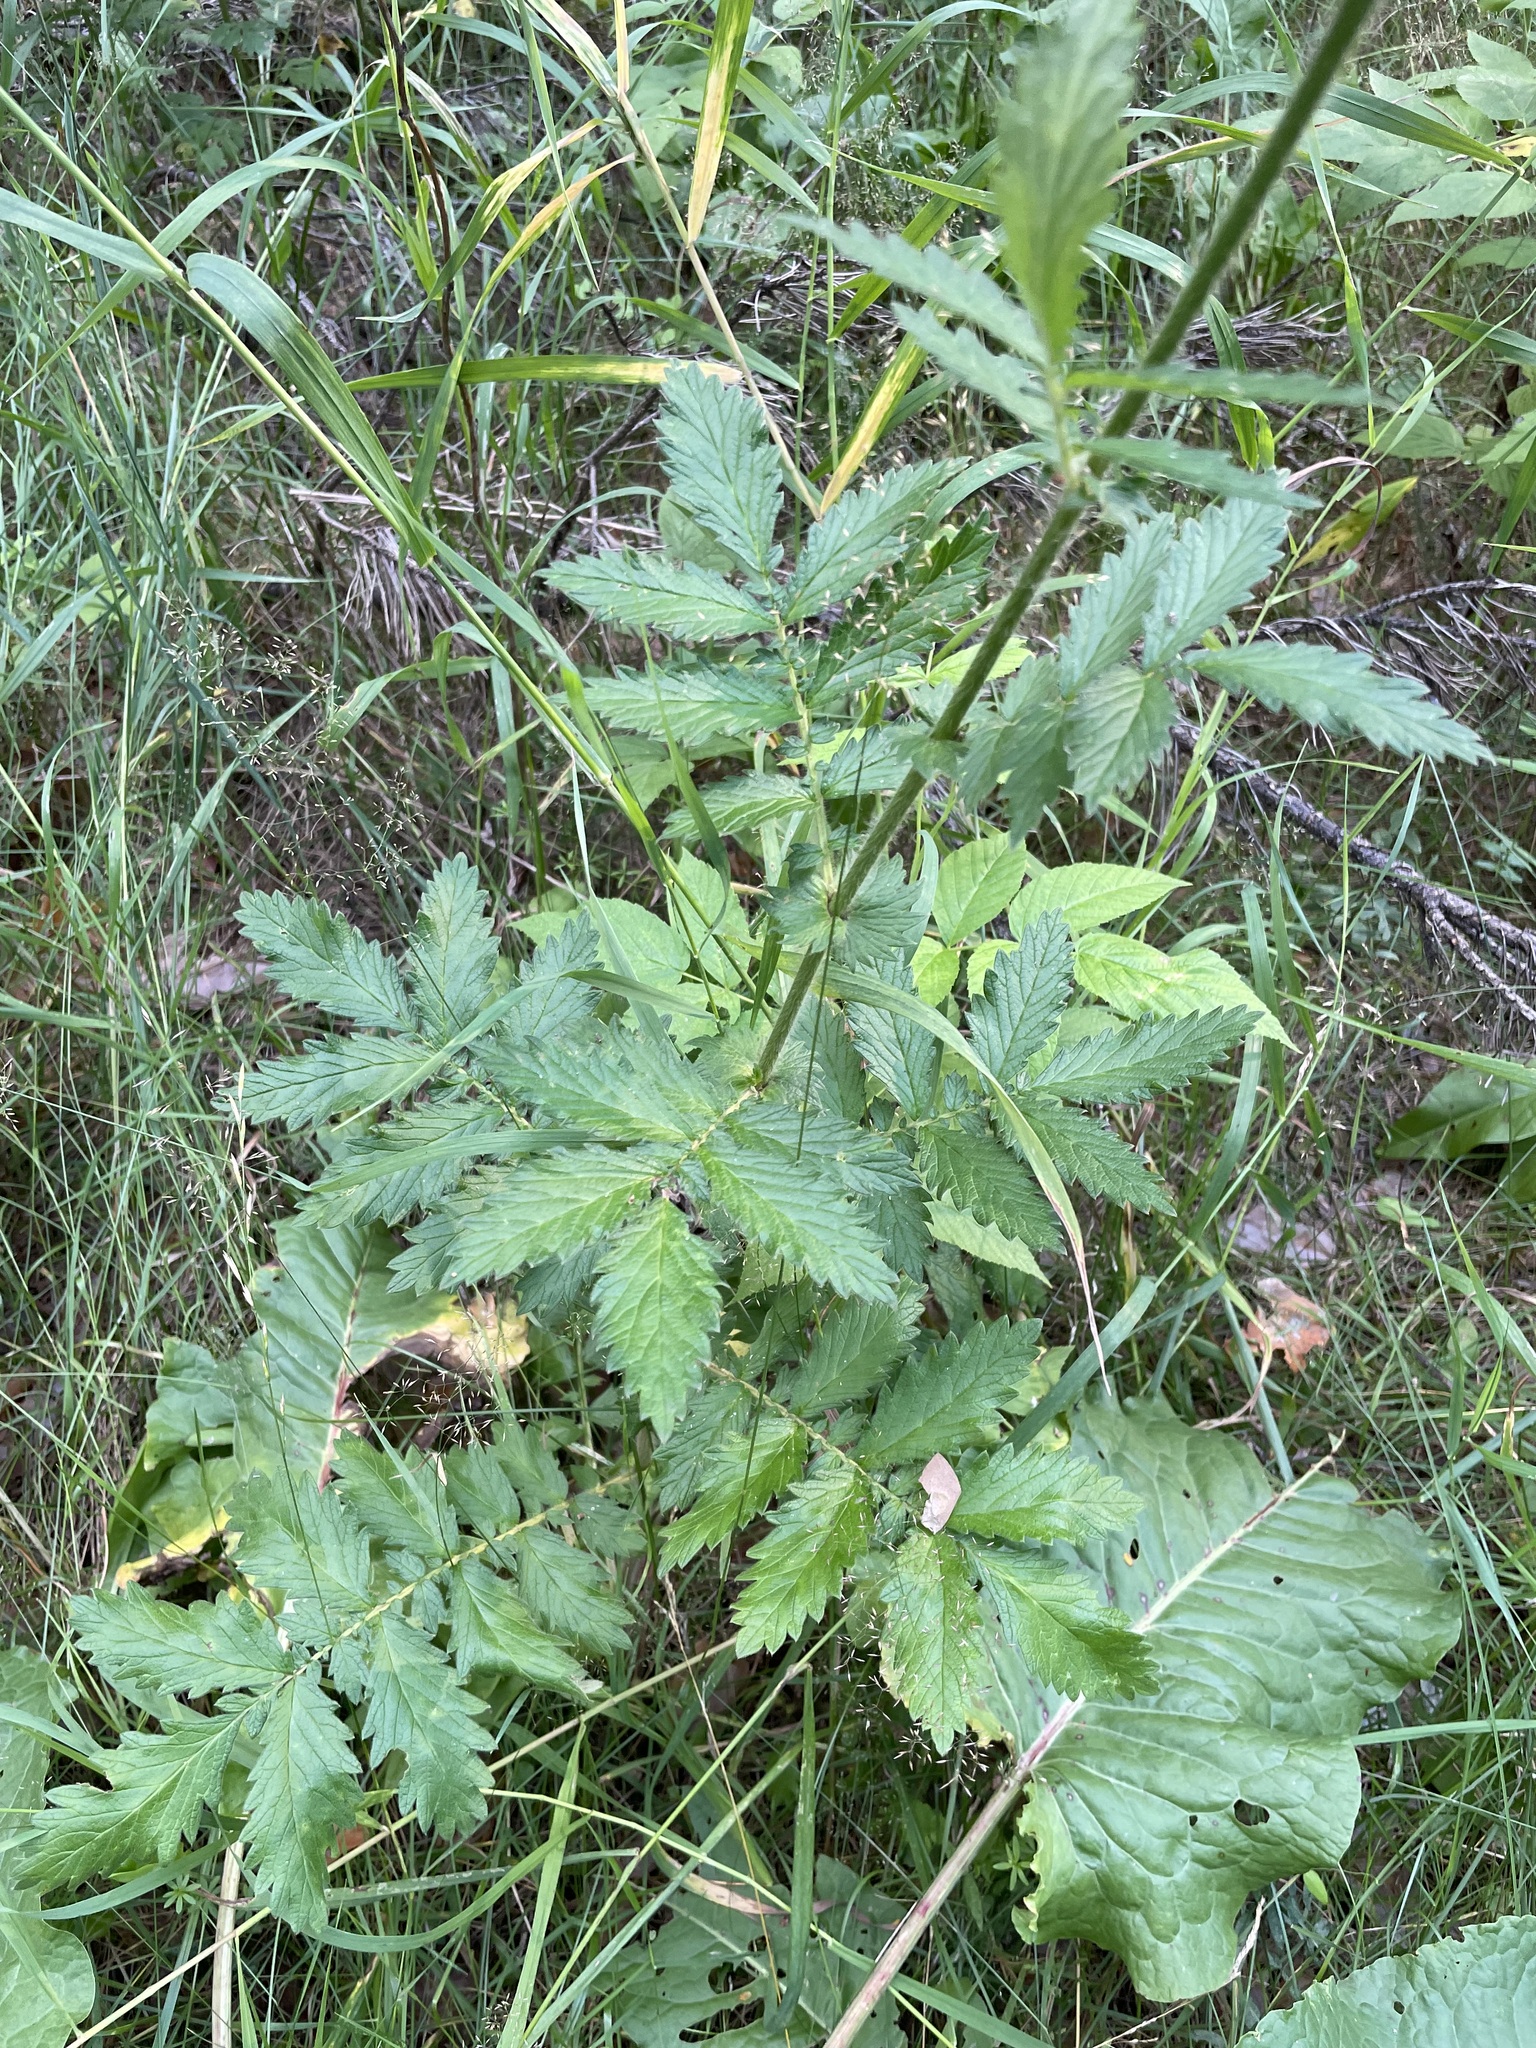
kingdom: Plantae
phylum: Tracheophyta
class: Magnoliopsida
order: Rosales
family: Rosaceae
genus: Agrimonia
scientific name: Agrimonia eupatoria
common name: Agrimony
